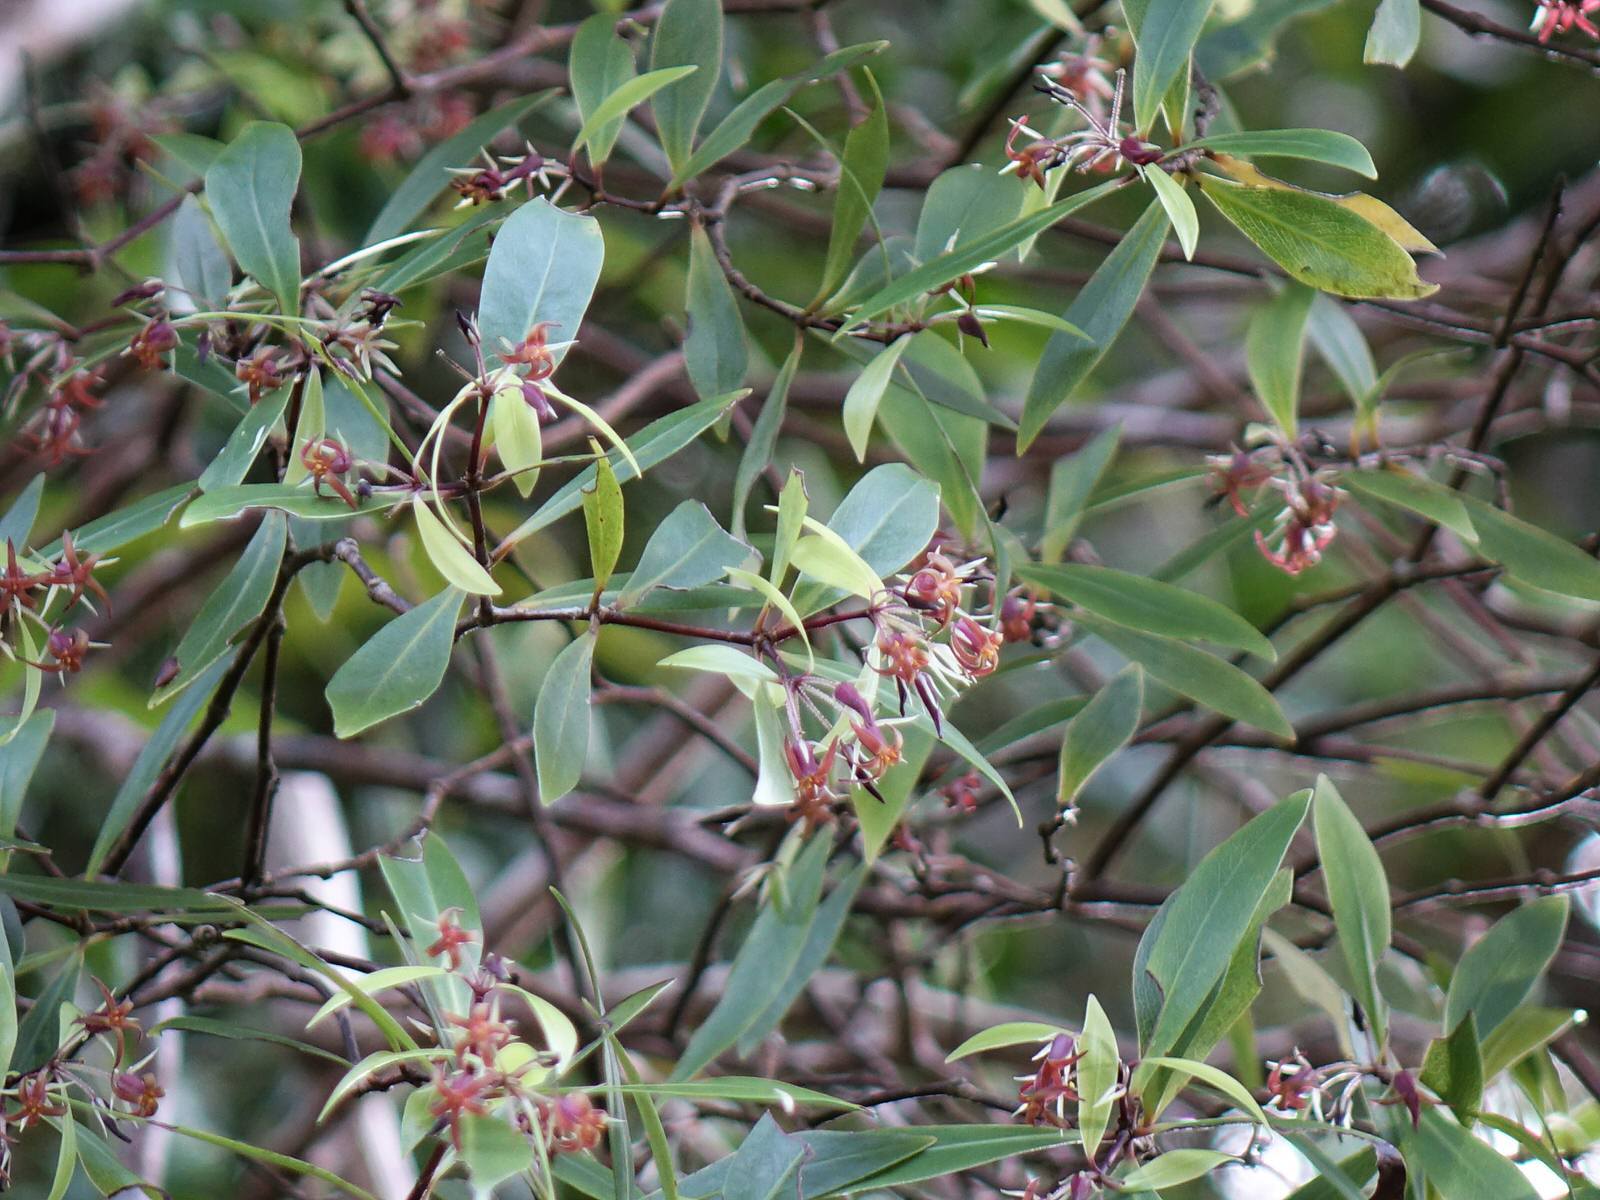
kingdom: Plantae
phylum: Tracheophyta
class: Magnoliopsida
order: Apiales
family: Pittosporaceae
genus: Pittosporum
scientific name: Pittosporum cornifolium
